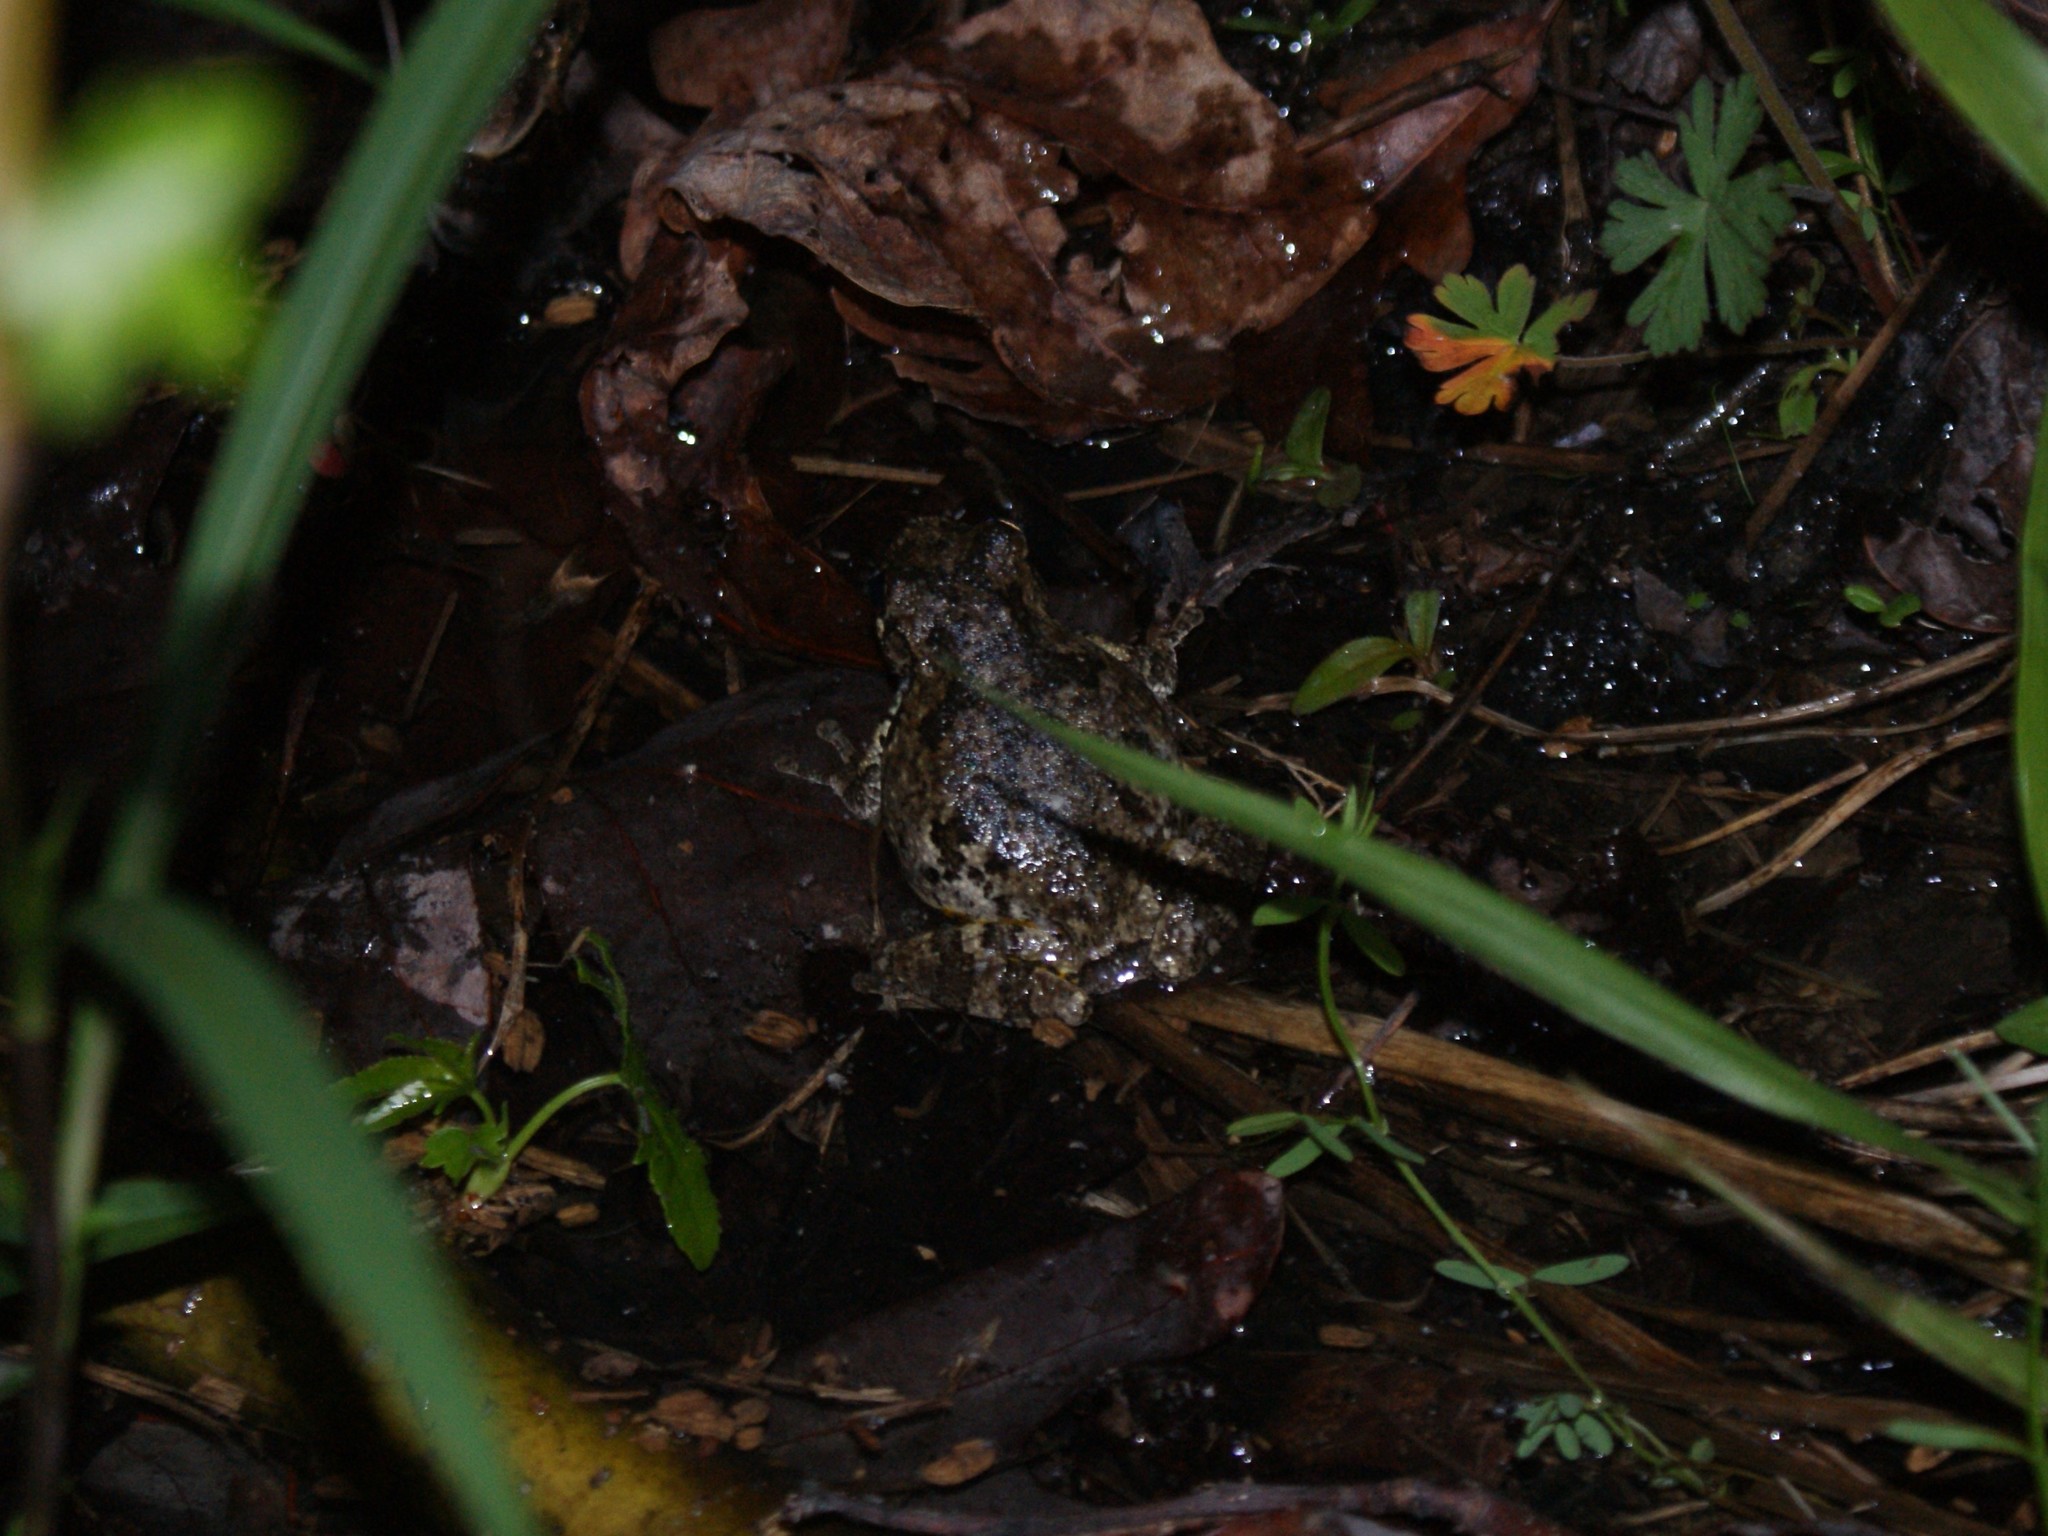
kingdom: Animalia
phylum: Chordata
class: Amphibia
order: Anura
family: Hylidae
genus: Dryophytes
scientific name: Dryophytes chrysoscelis
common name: Cope's gray treefrog
